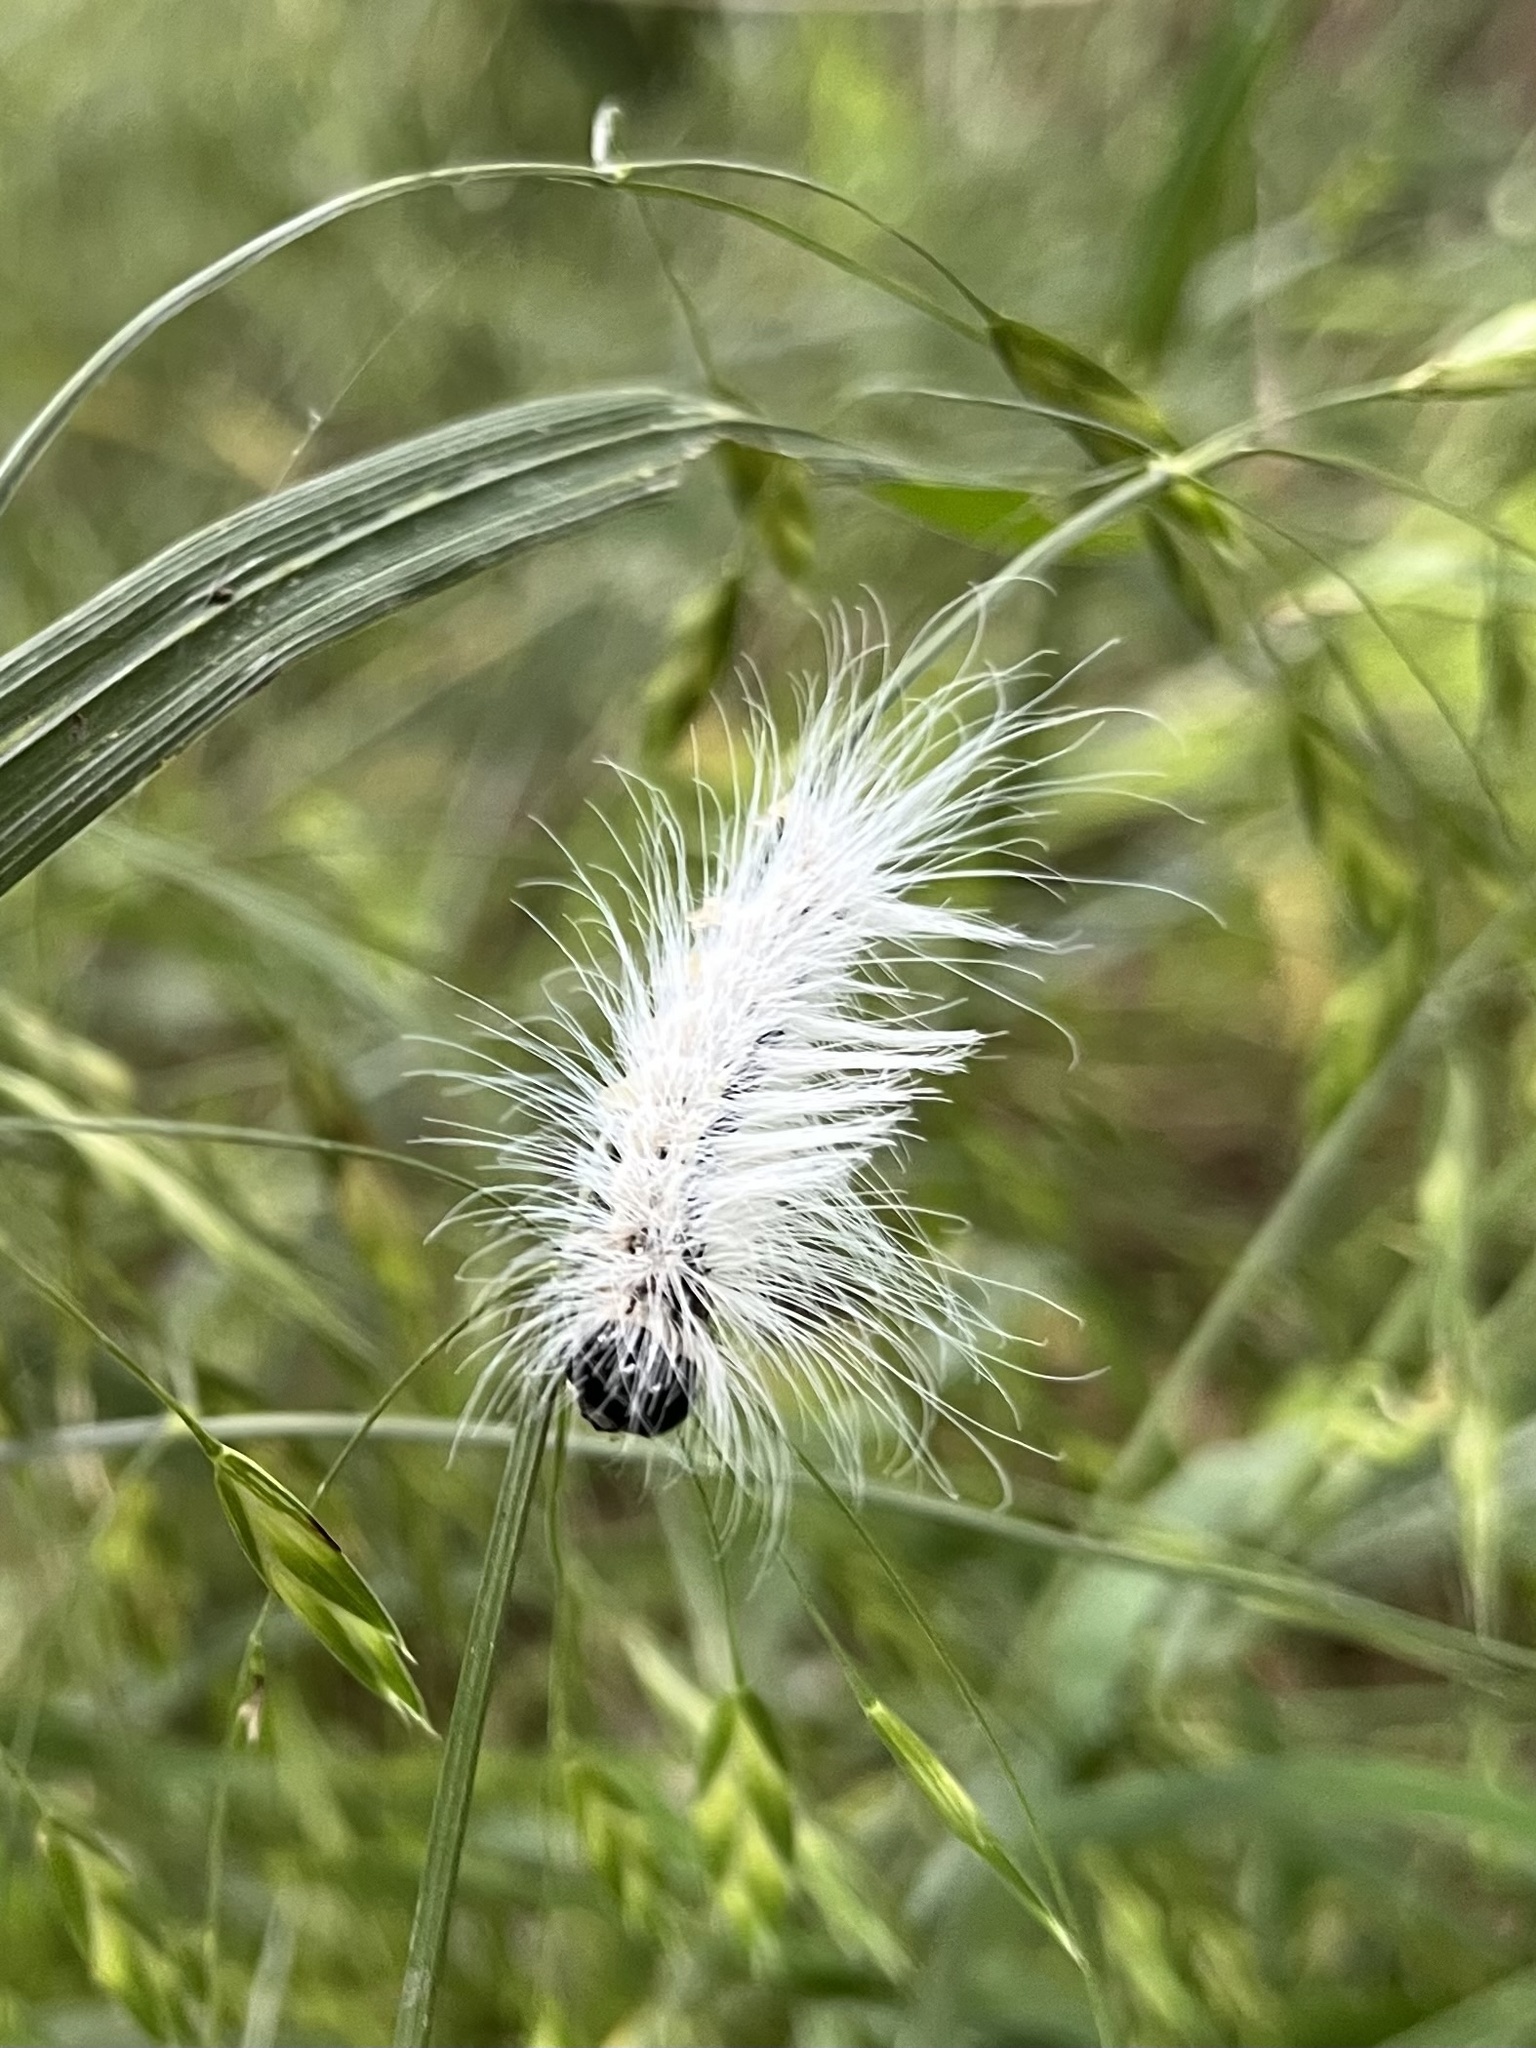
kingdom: Animalia
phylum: Arthropoda
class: Insecta
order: Lepidoptera
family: Noctuidae
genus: Acronicta
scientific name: Acronicta rubricoma
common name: Hackberry dagger
